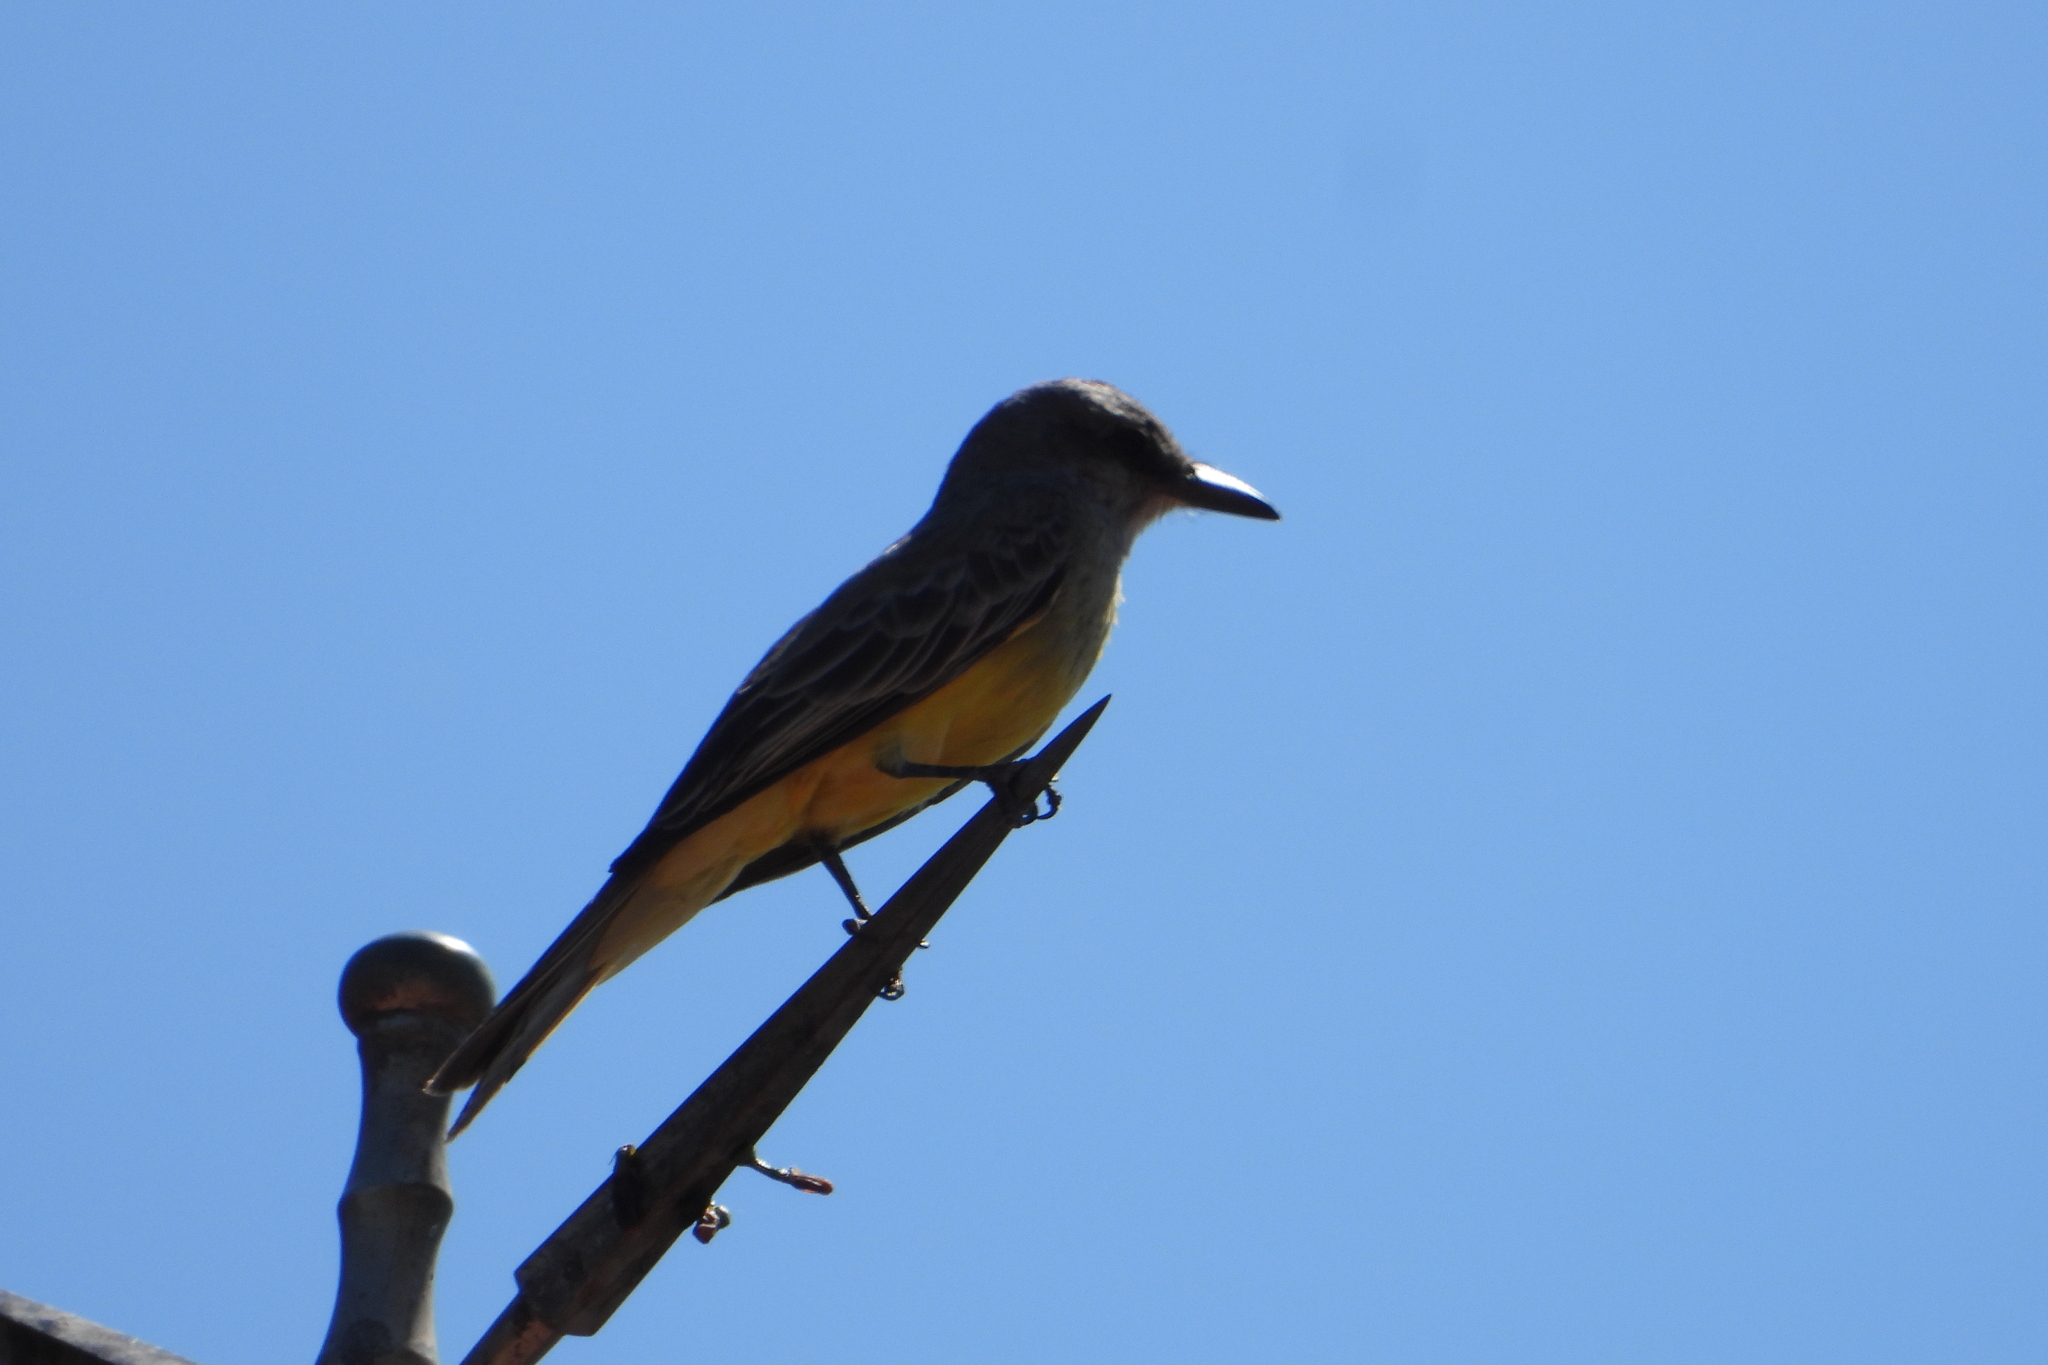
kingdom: Animalia
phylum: Chordata
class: Aves
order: Passeriformes
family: Tyrannidae
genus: Tyrannus
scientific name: Tyrannus vociferans
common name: Cassin's kingbird
